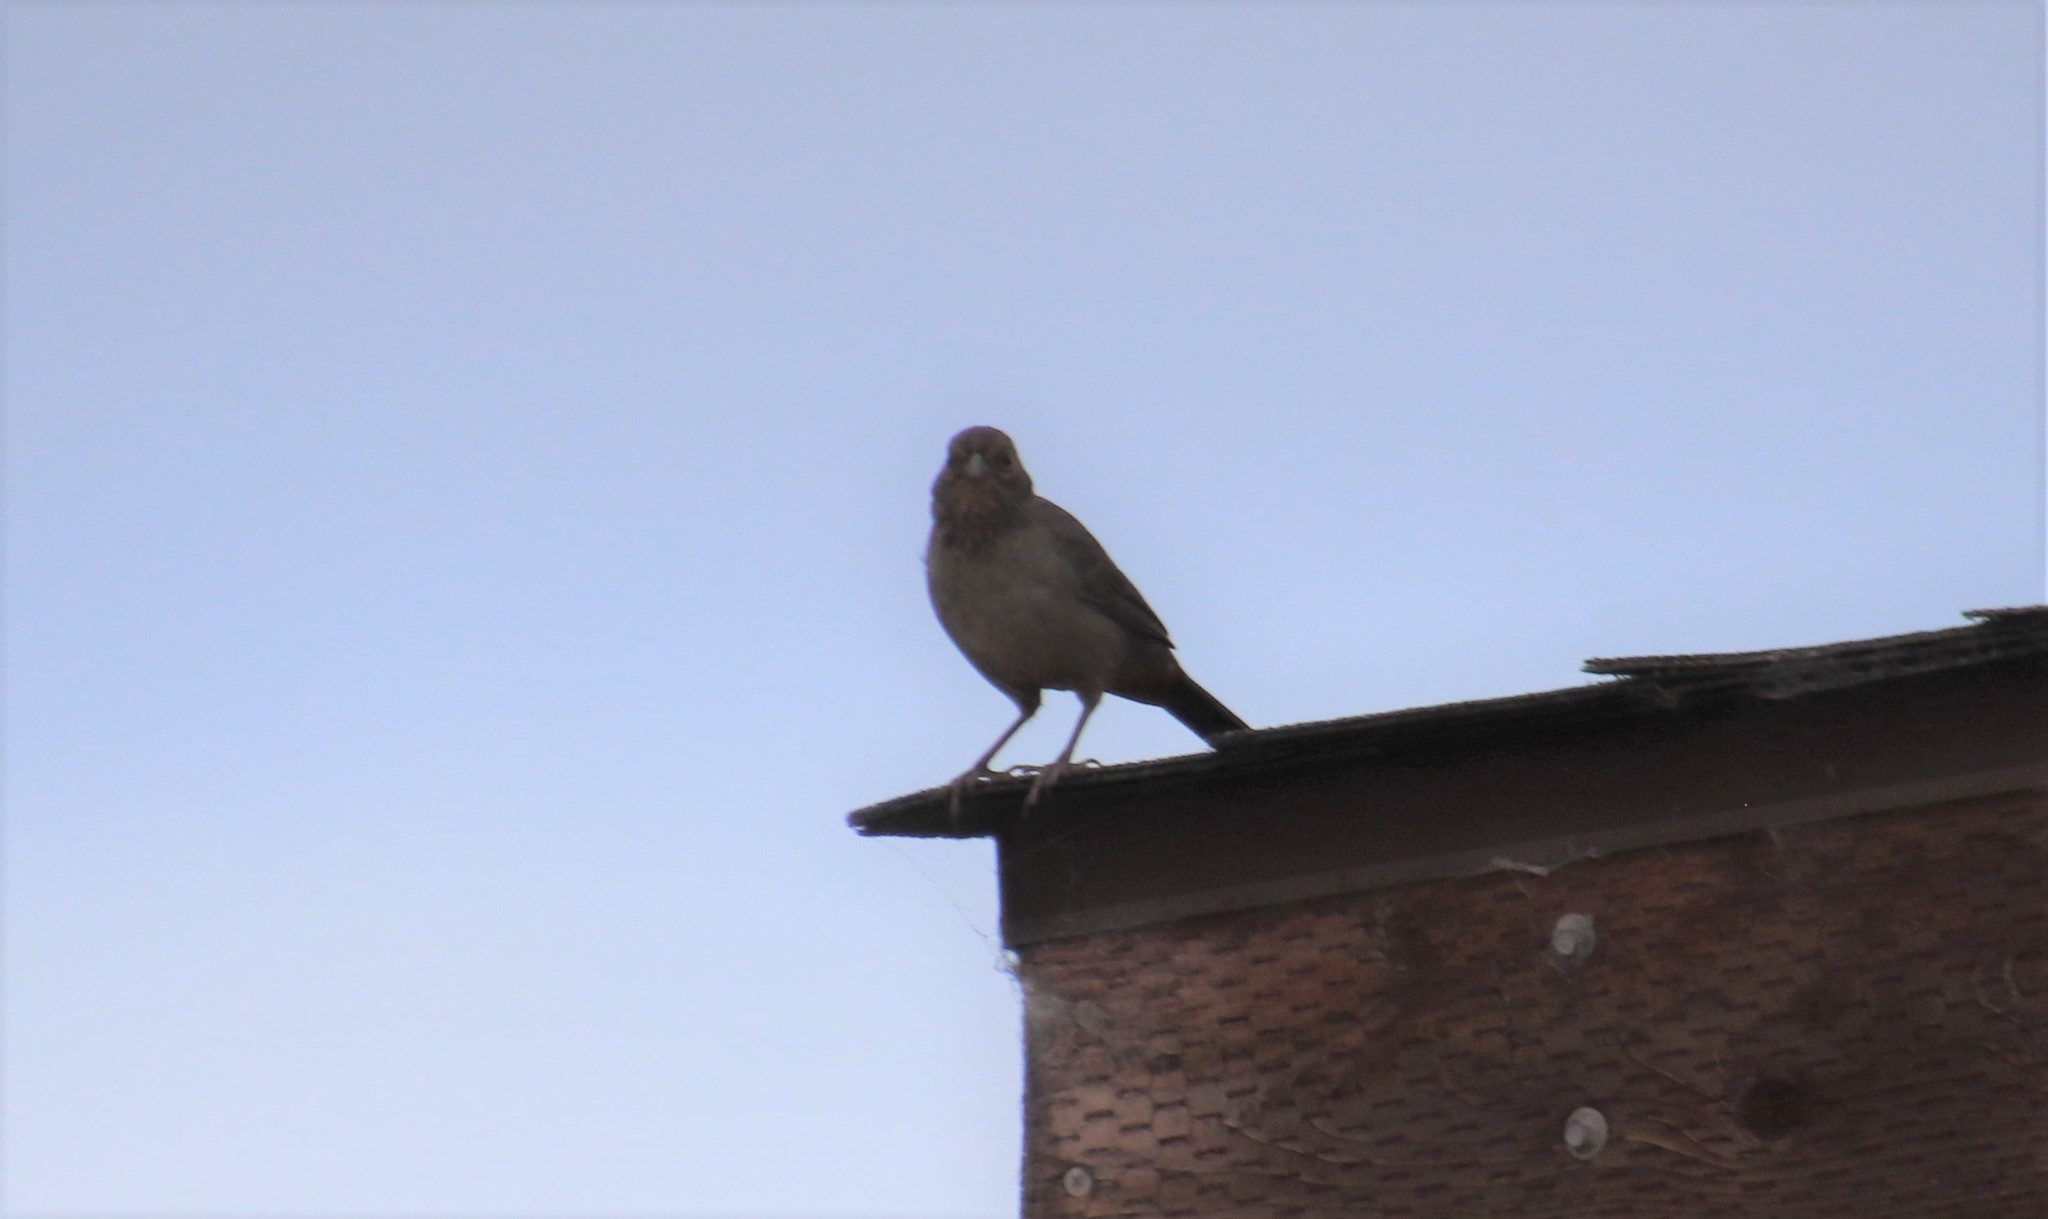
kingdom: Animalia
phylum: Chordata
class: Aves
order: Passeriformes
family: Passerellidae
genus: Melozone
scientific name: Melozone crissalis
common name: California towhee
